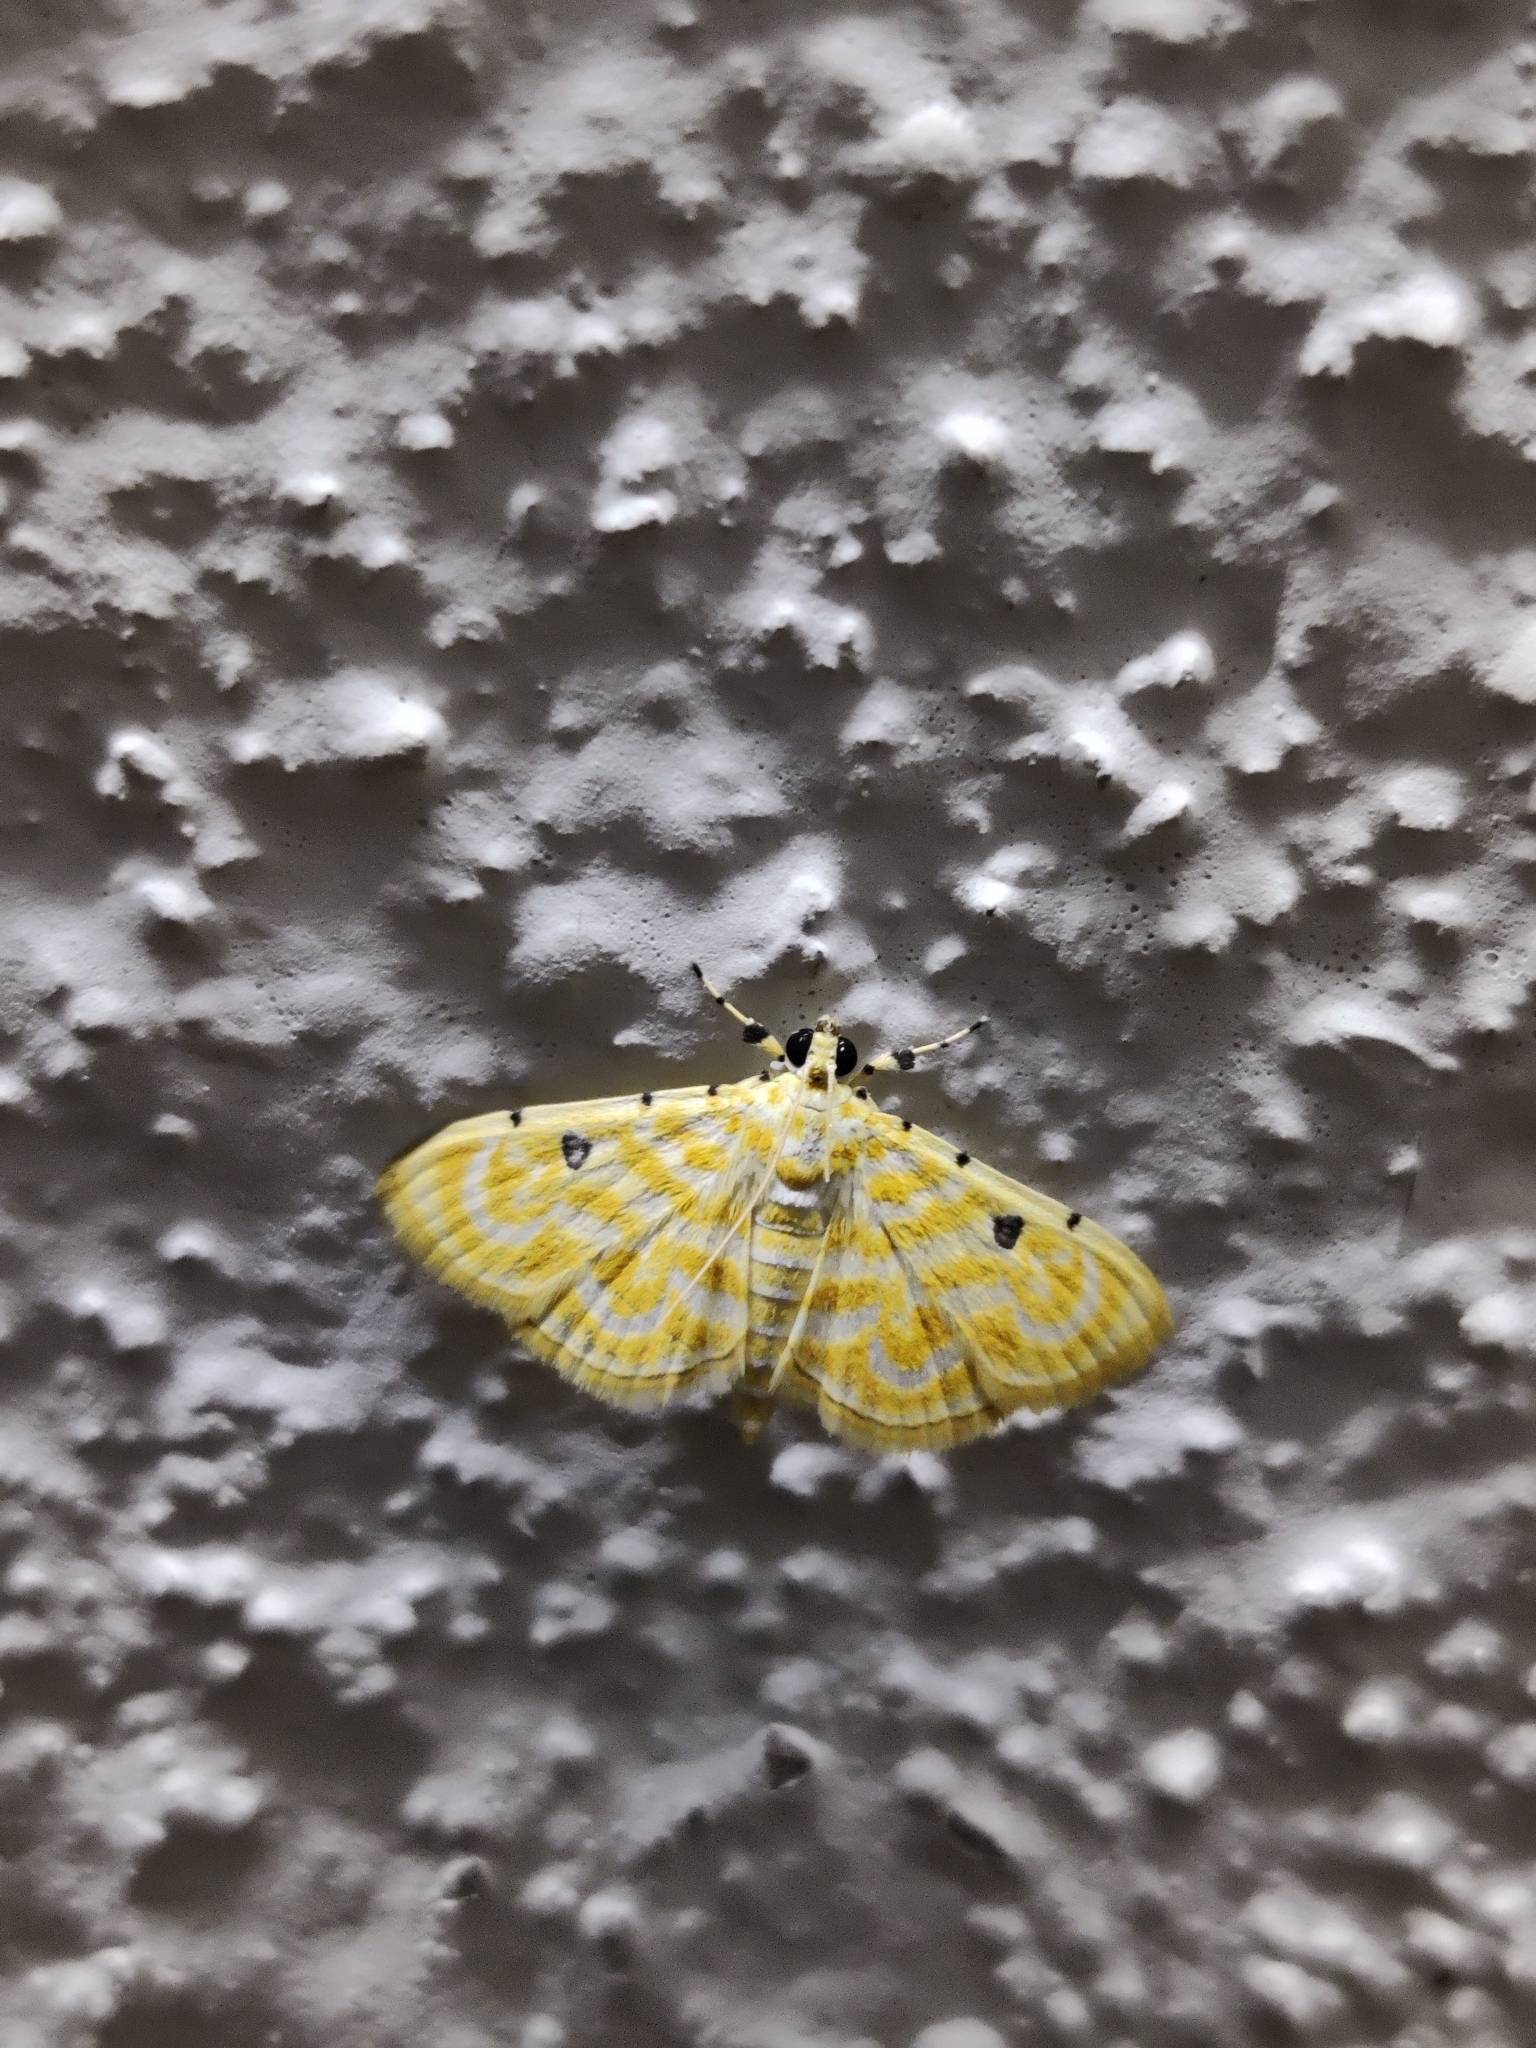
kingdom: Animalia
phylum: Arthropoda
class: Insecta
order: Lepidoptera
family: Crambidae
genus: Notarcha
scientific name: Notarcha aurolinealis
